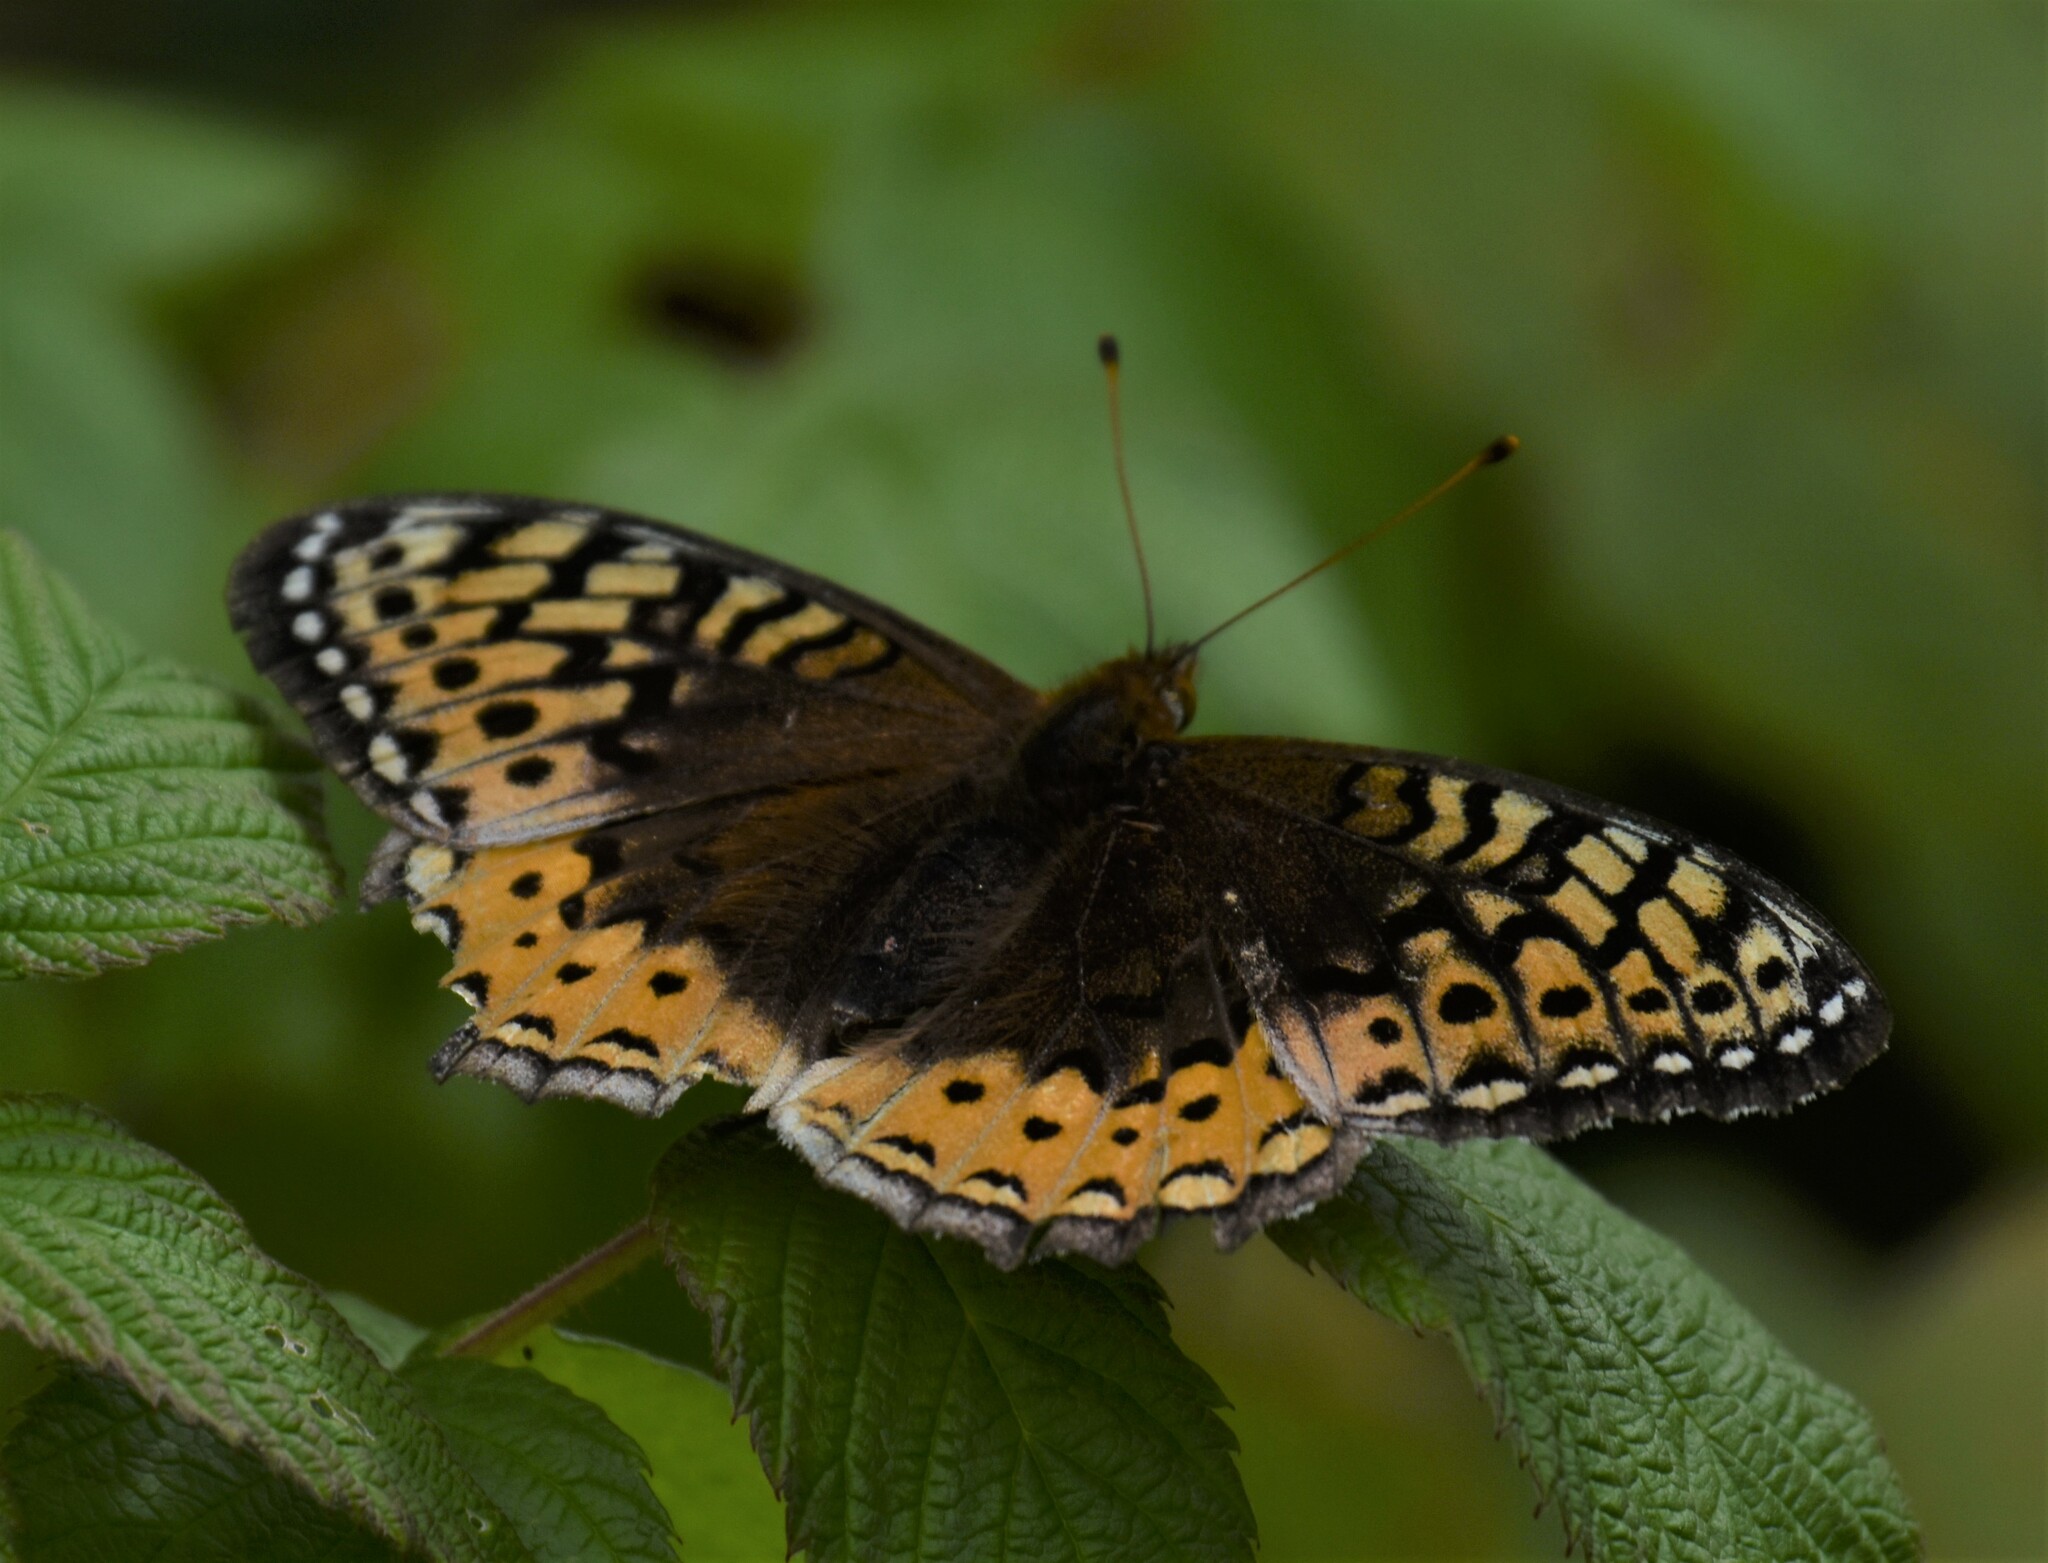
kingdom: Animalia
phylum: Arthropoda
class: Insecta
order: Lepidoptera
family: Nymphalidae
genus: Speyeria
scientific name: Speyeria cybele
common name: Great spangled fritillary
